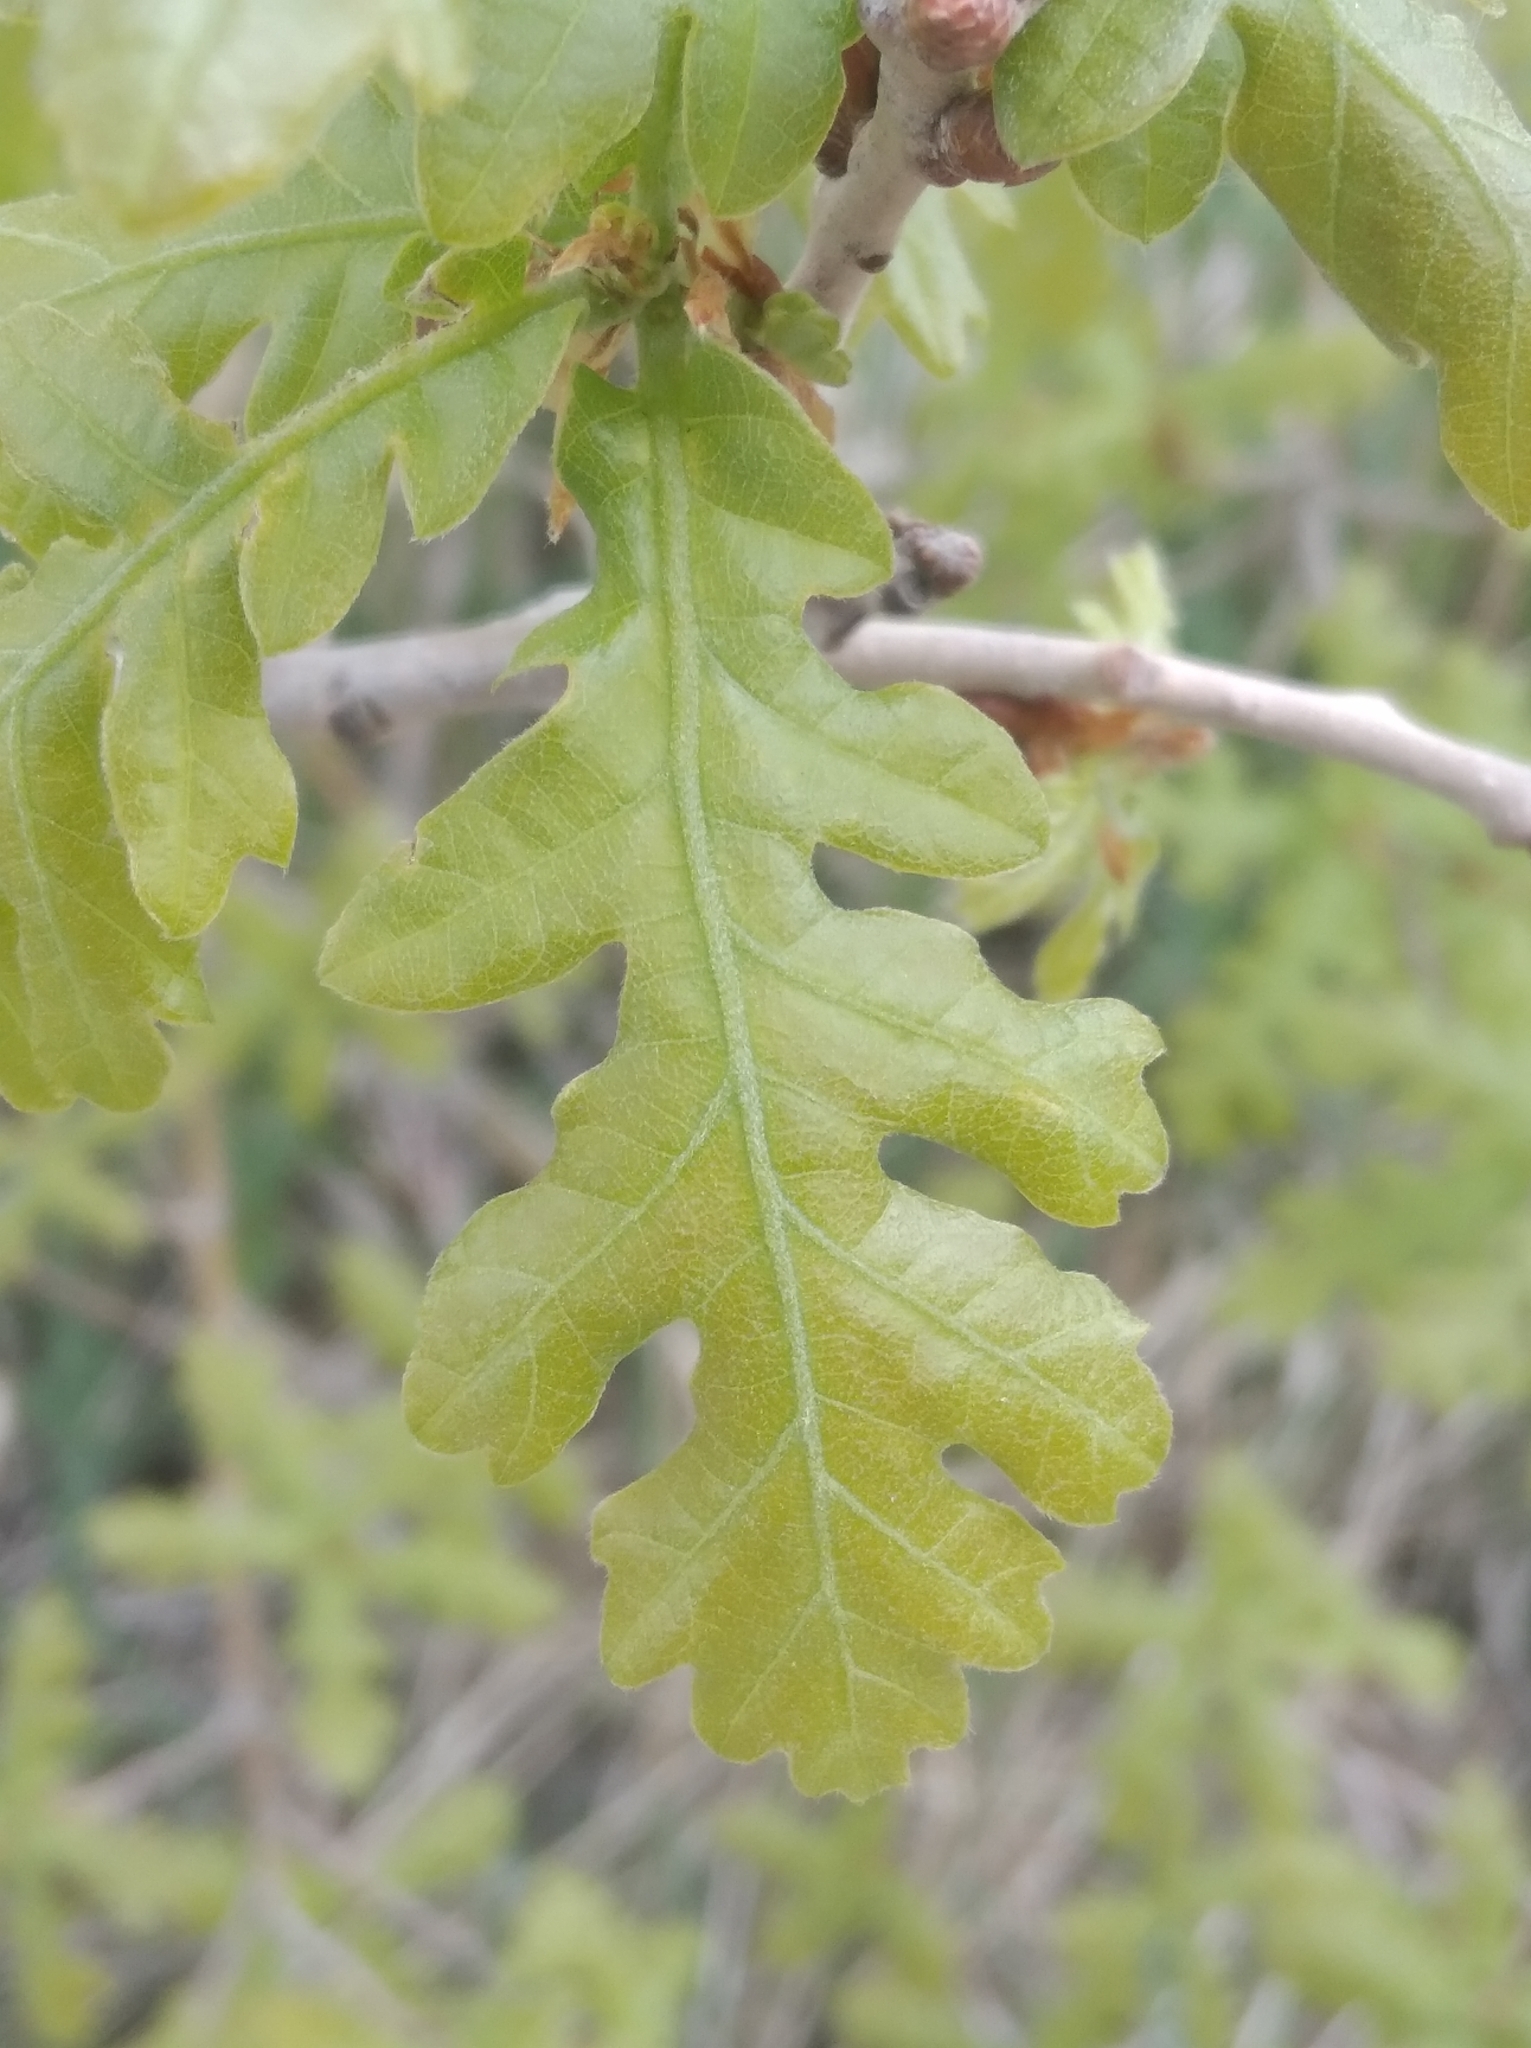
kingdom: Plantae
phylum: Tracheophyta
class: Magnoliopsida
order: Fagales
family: Fagaceae
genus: Quercus
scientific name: Quercus cerris
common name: Turkey oak
